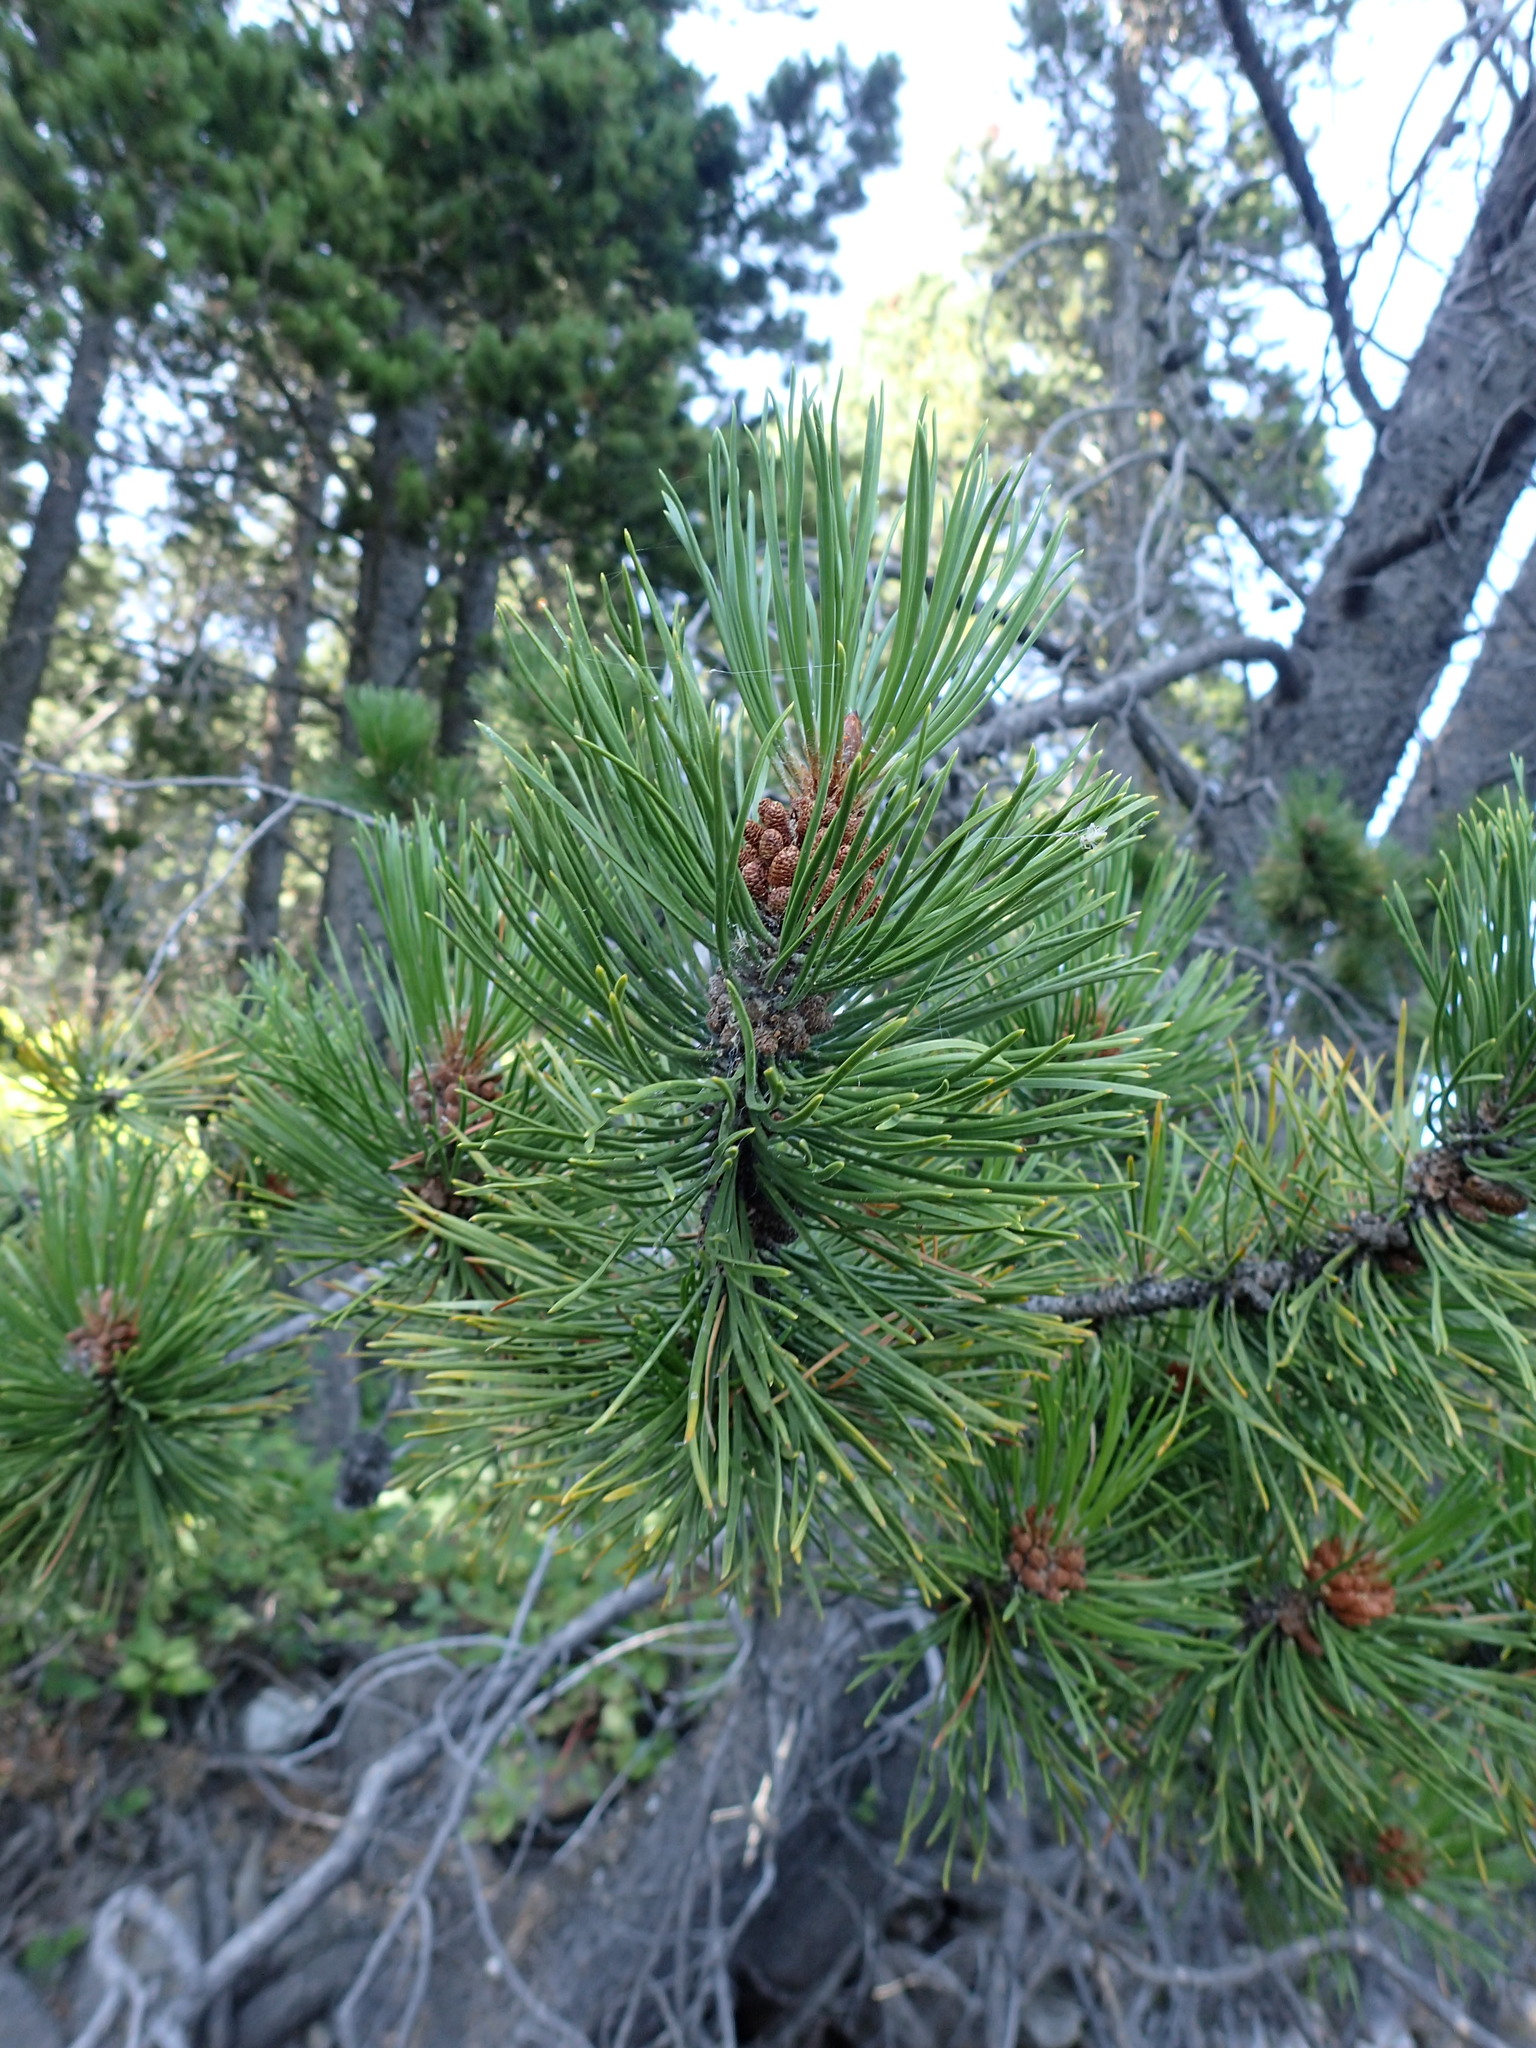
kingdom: Plantae
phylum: Tracheophyta
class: Pinopsida
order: Pinales
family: Pinaceae
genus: Pinus
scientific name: Pinus contorta
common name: Lodgepole pine
